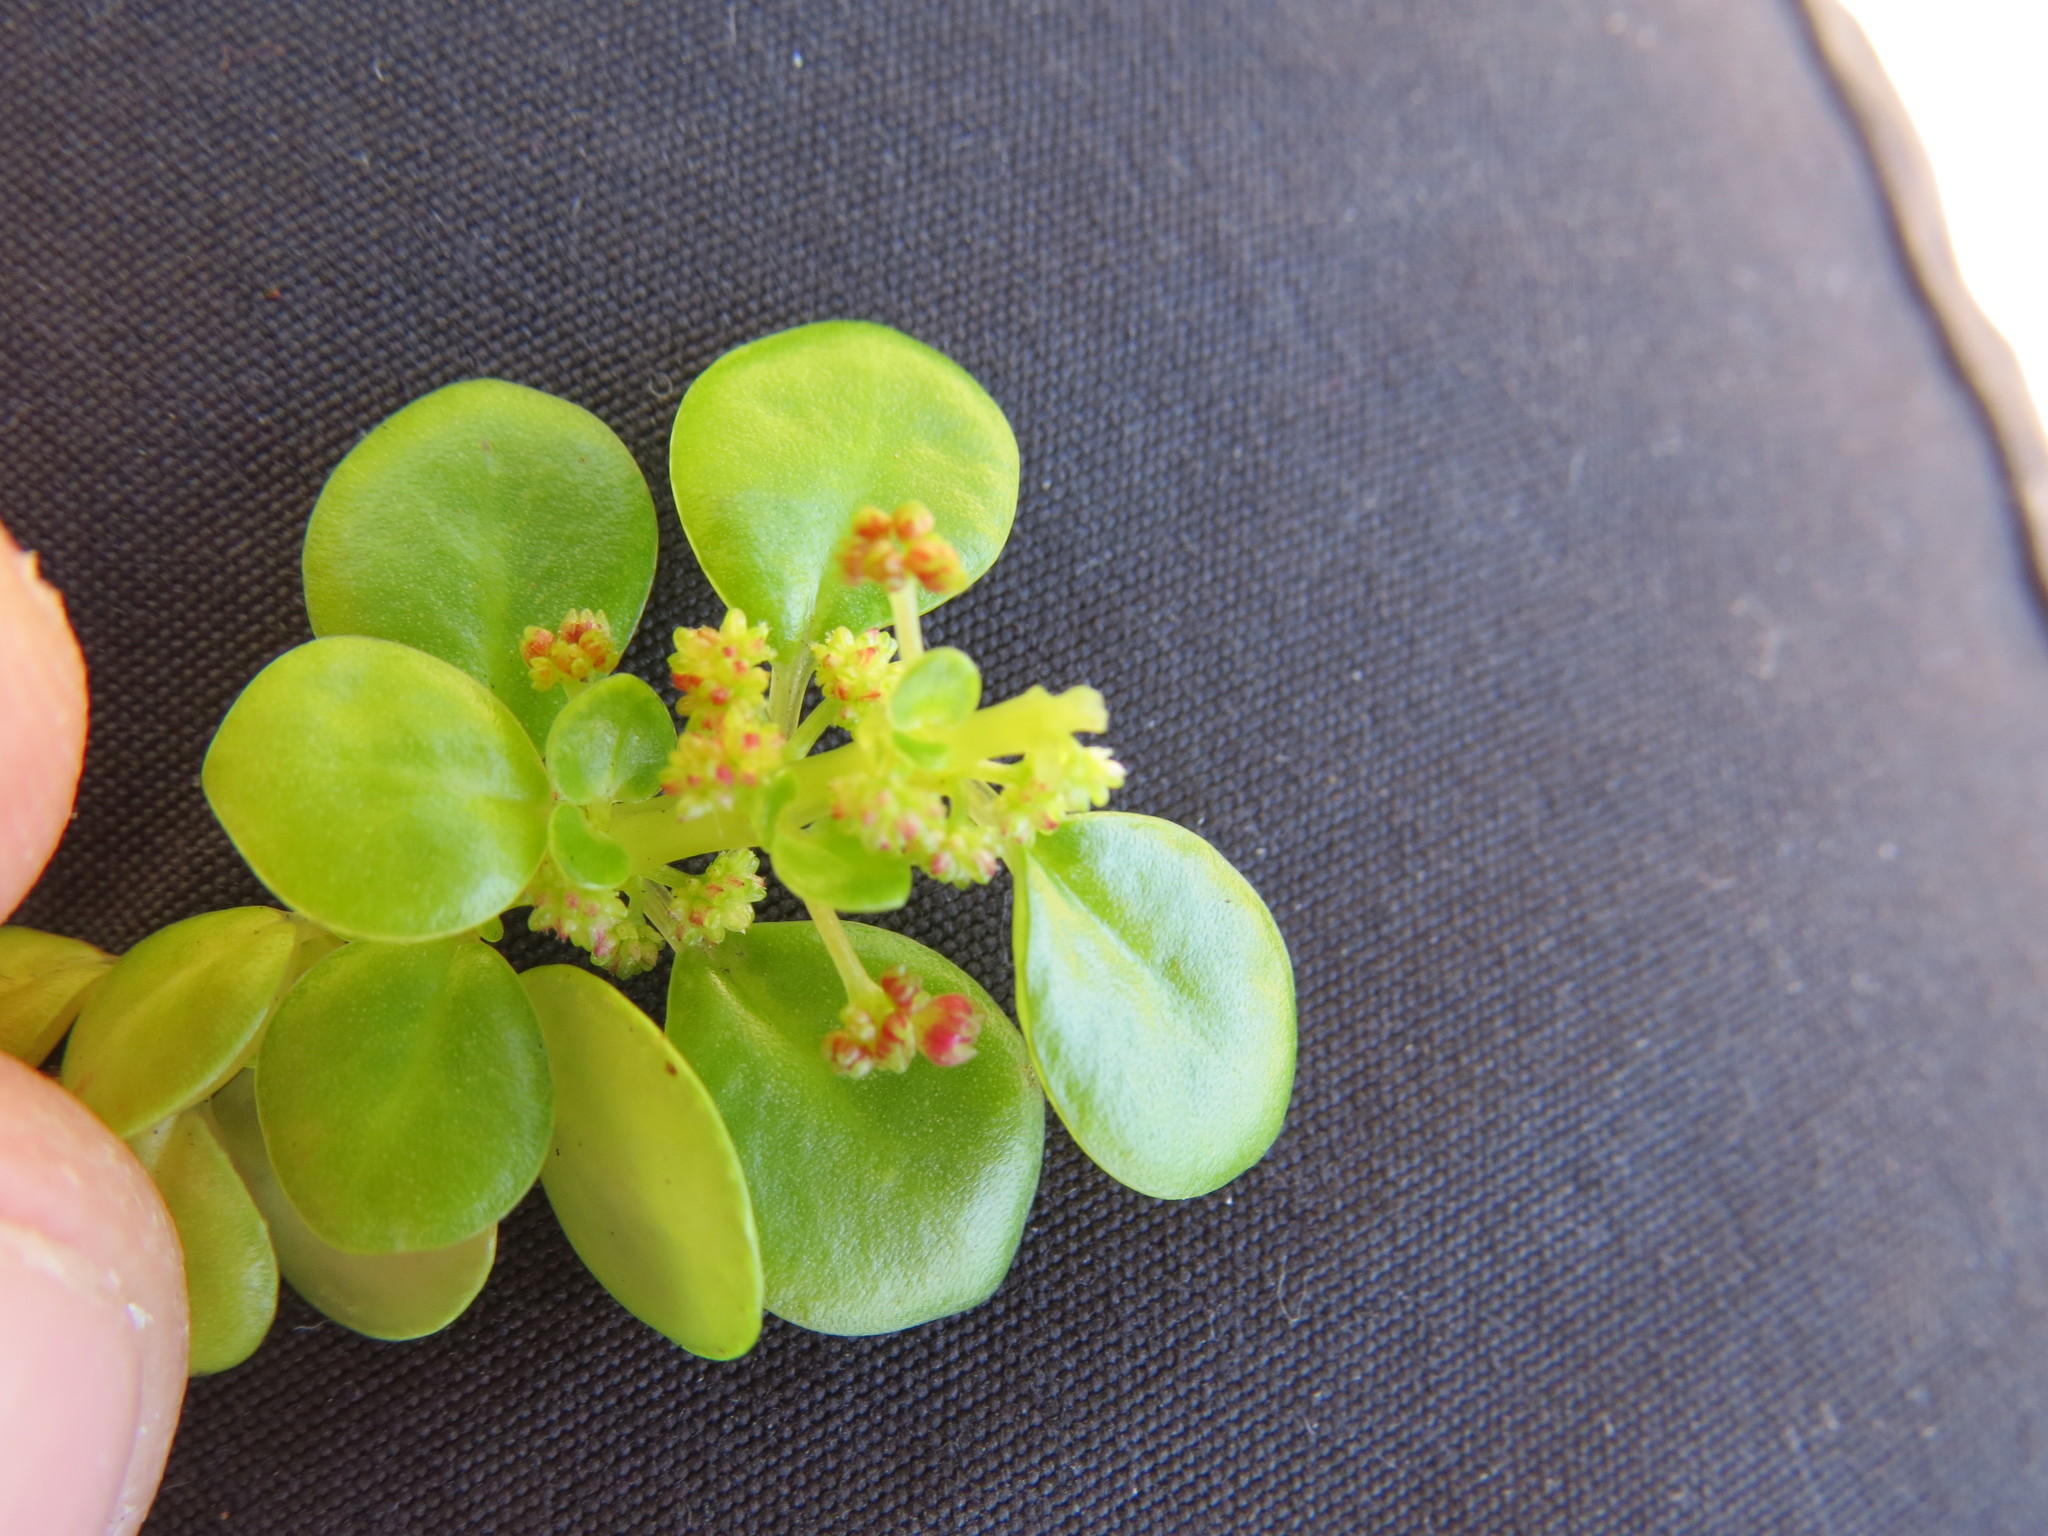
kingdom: Plantae
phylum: Tracheophyta
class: Magnoliopsida
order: Rosales
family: Urticaceae
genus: Pilea
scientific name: Pilea carautae
